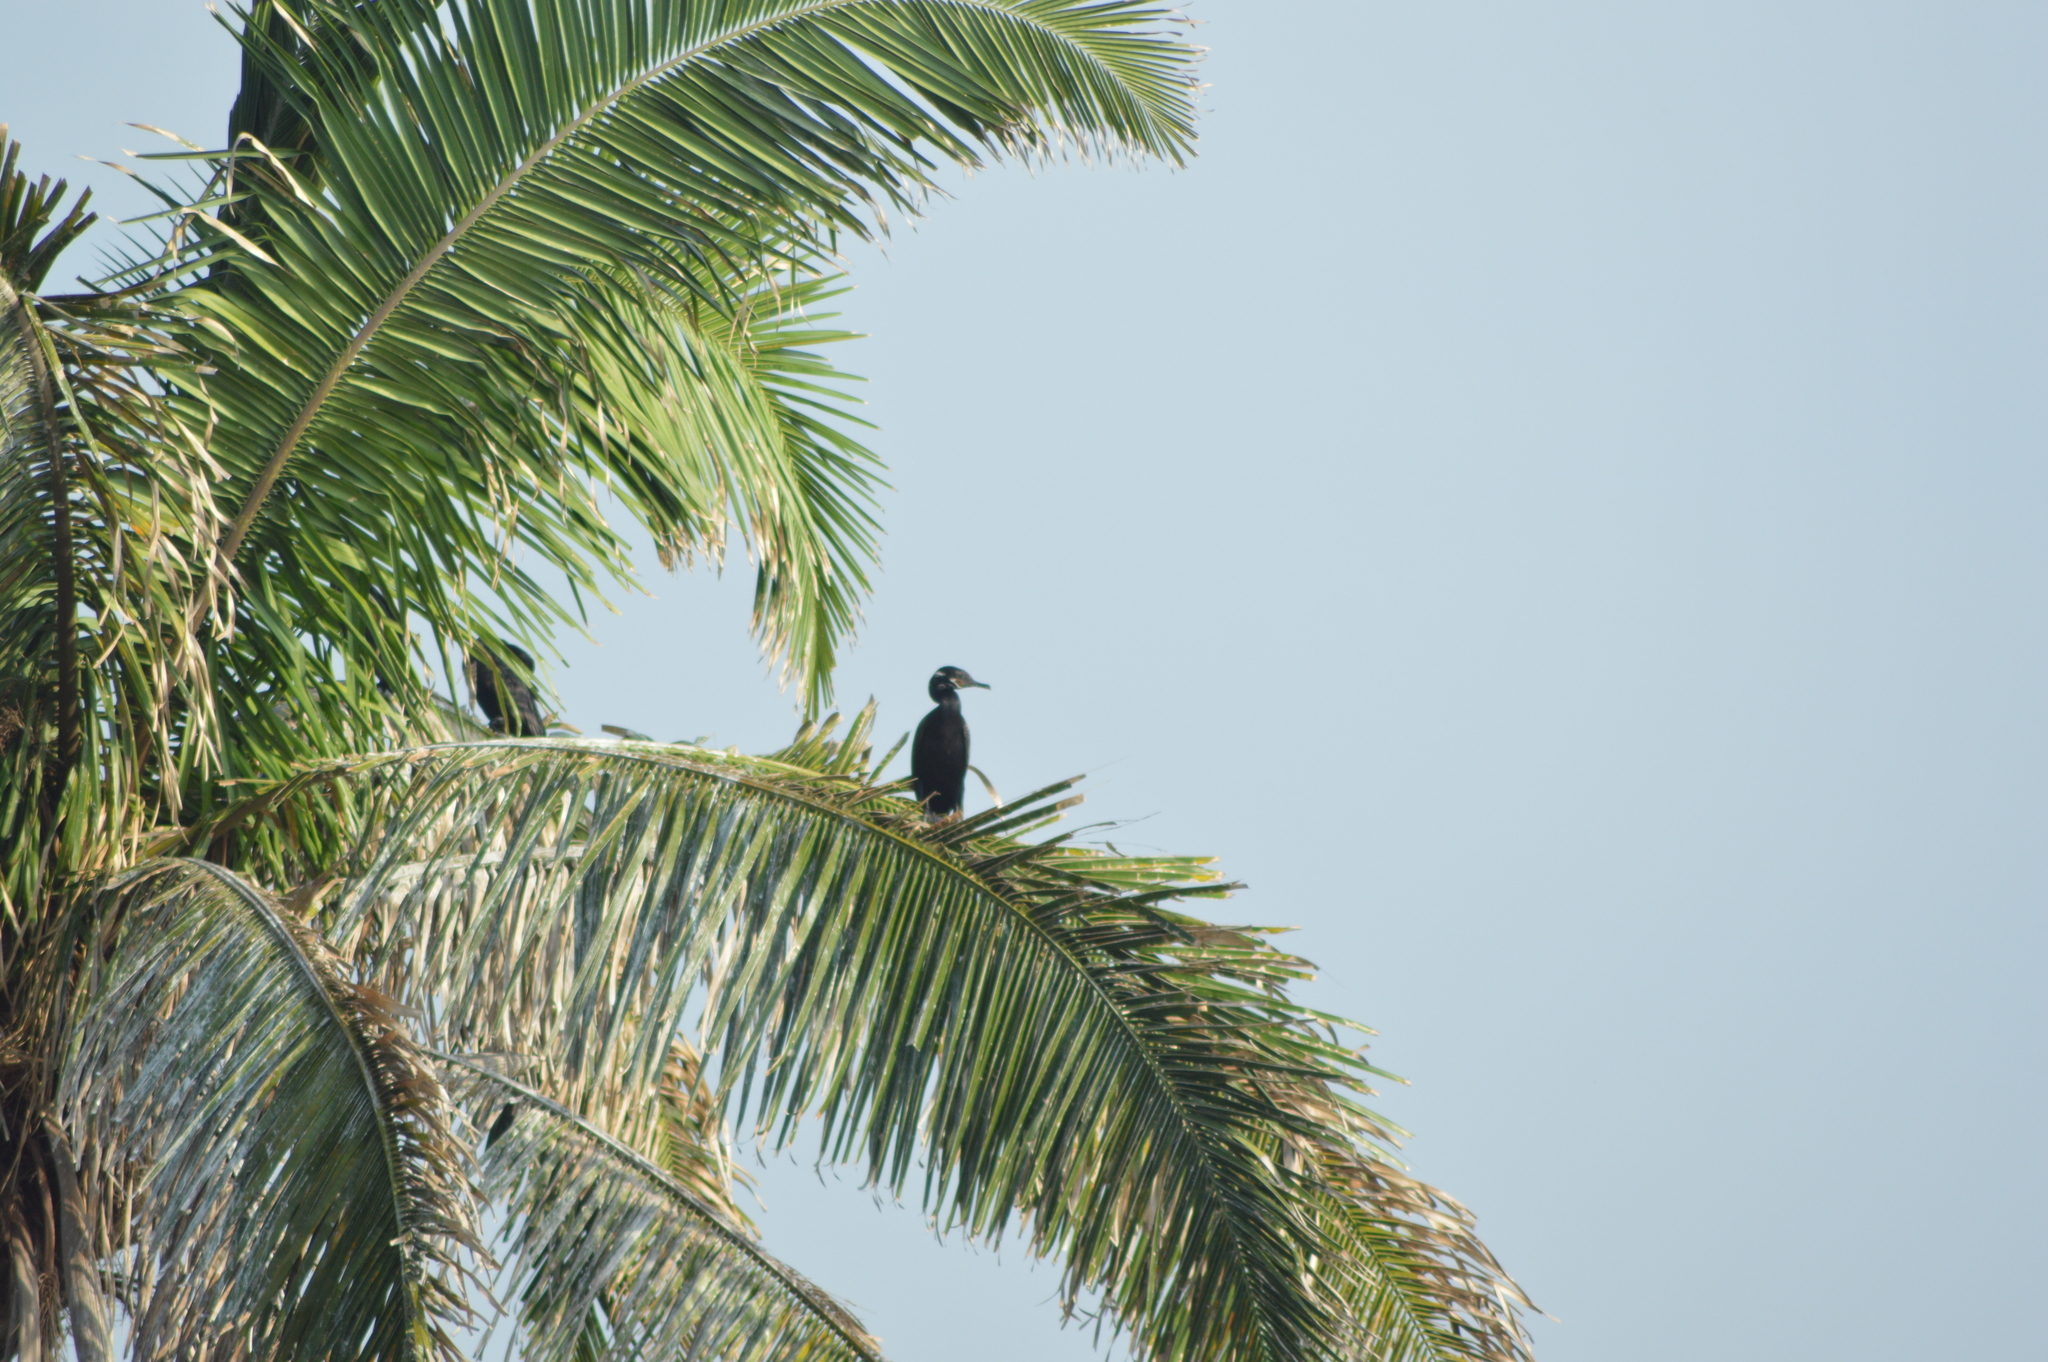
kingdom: Animalia
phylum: Chordata
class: Aves
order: Suliformes
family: Phalacrocoracidae
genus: Phalacrocorax
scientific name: Phalacrocorax brasilianus
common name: Neotropic cormorant
